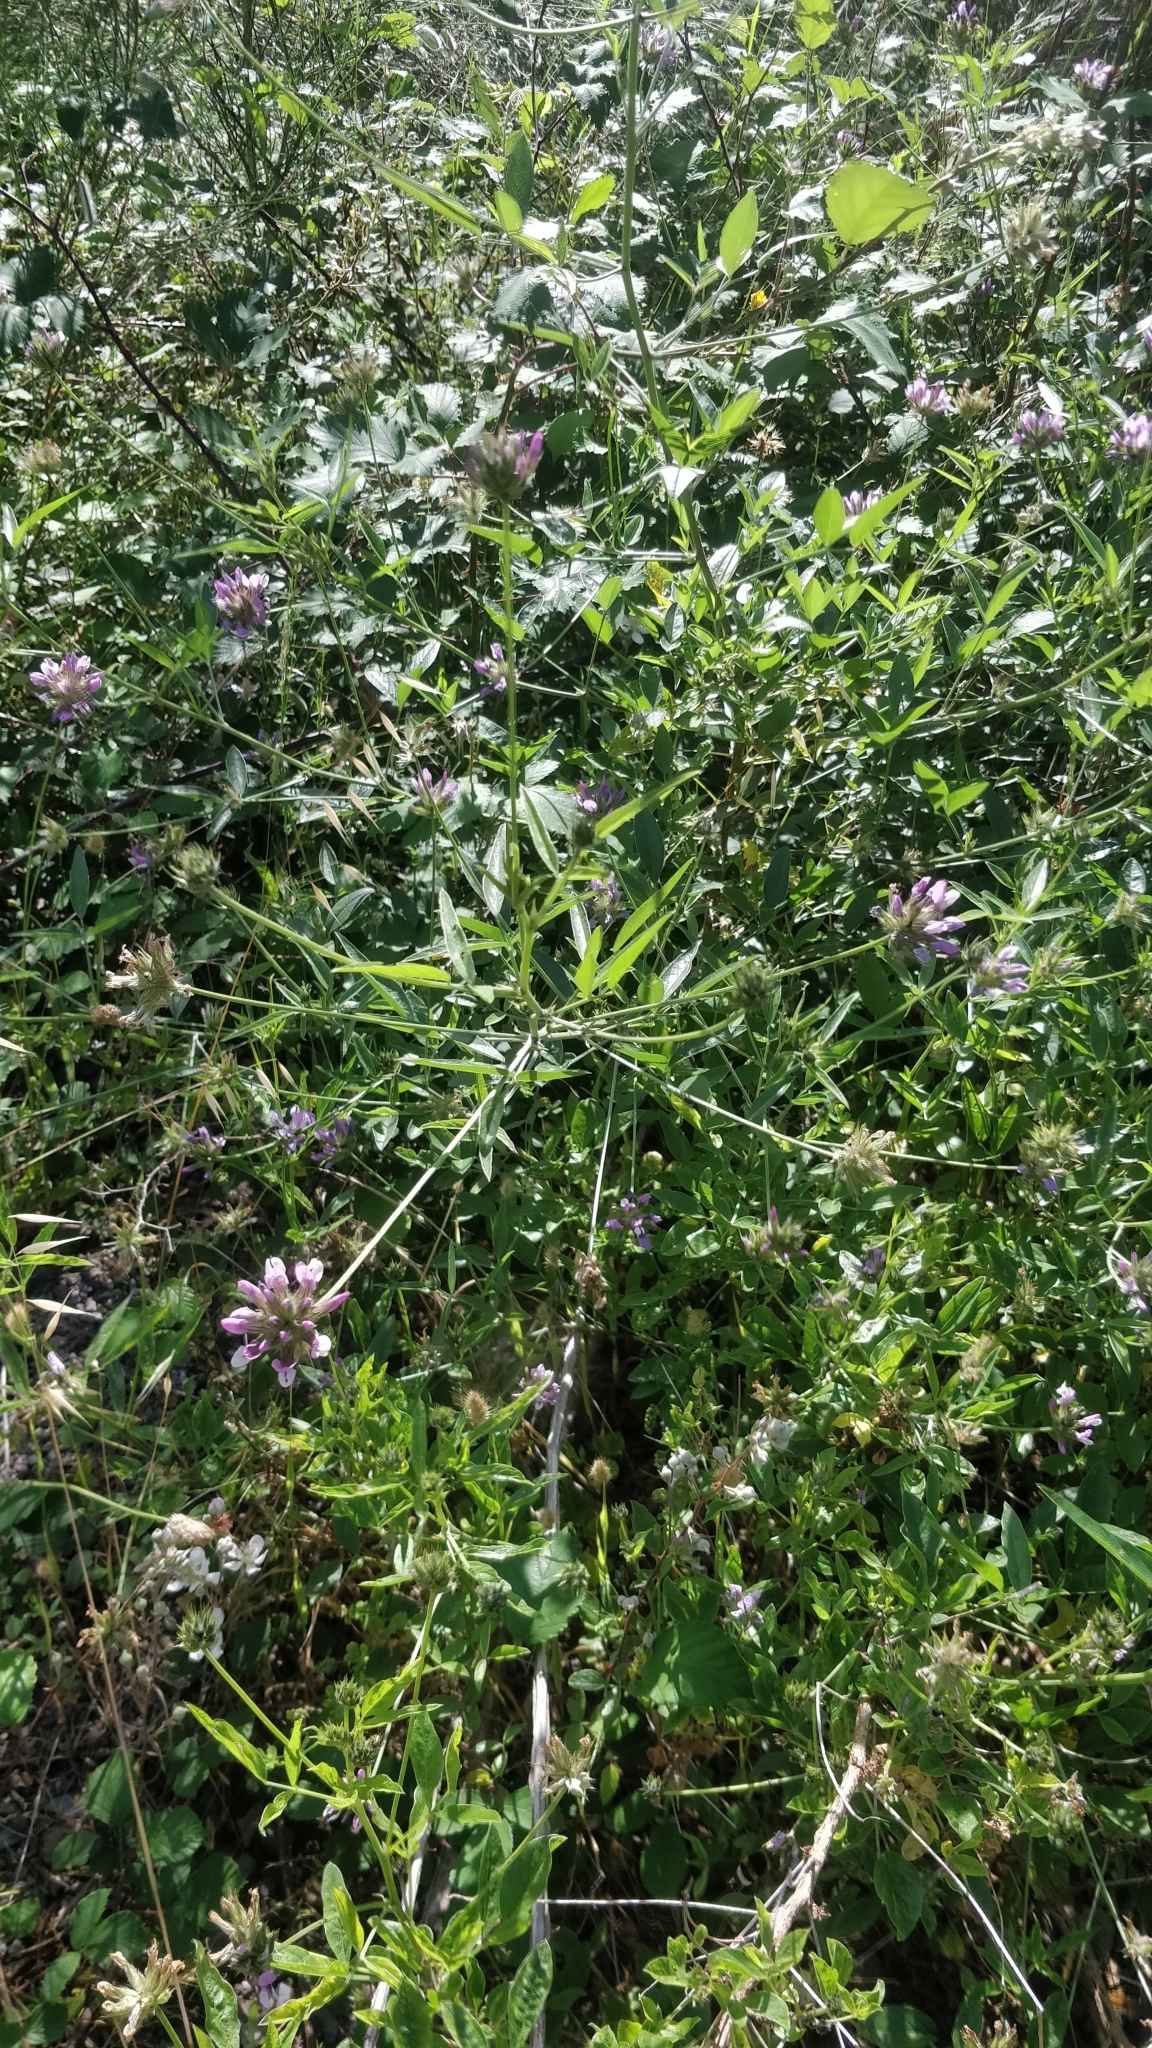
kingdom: Plantae
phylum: Tracheophyta
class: Magnoliopsida
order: Fabales
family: Fabaceae
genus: Bituminaria
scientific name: Bituminaria bituminosa
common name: Arabian pea
